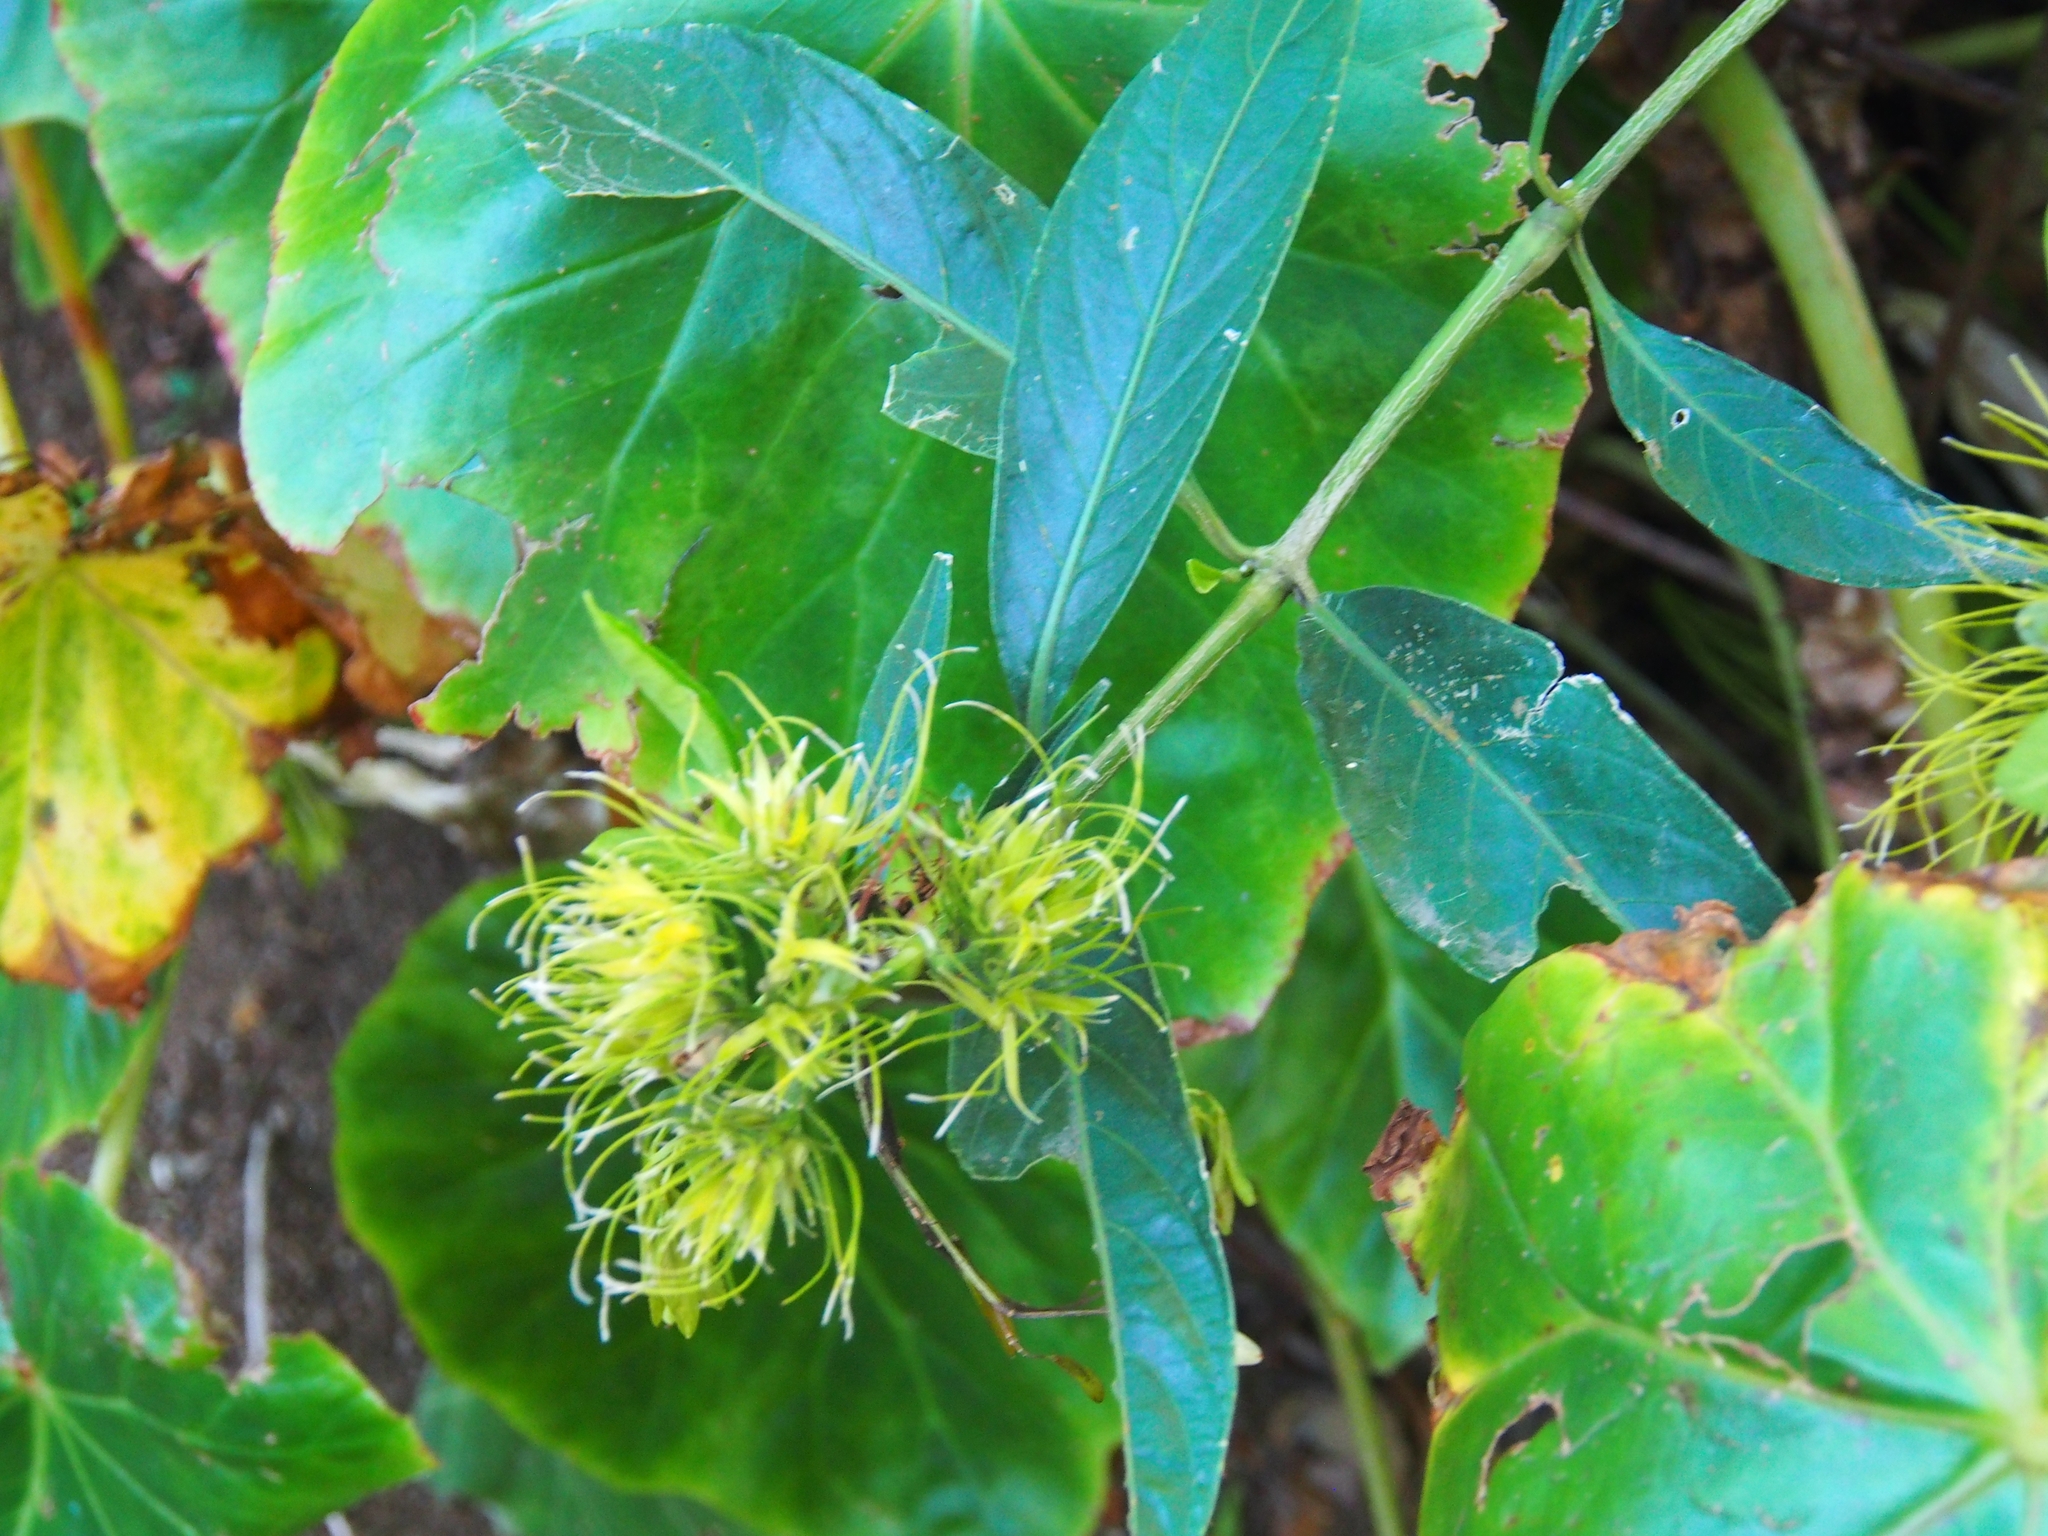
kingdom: Plantae
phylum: Tracheophyta
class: Magnoliopsida
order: Lamiales
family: Acanthaceae
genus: Justicia
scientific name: Justicia croceochlamys
